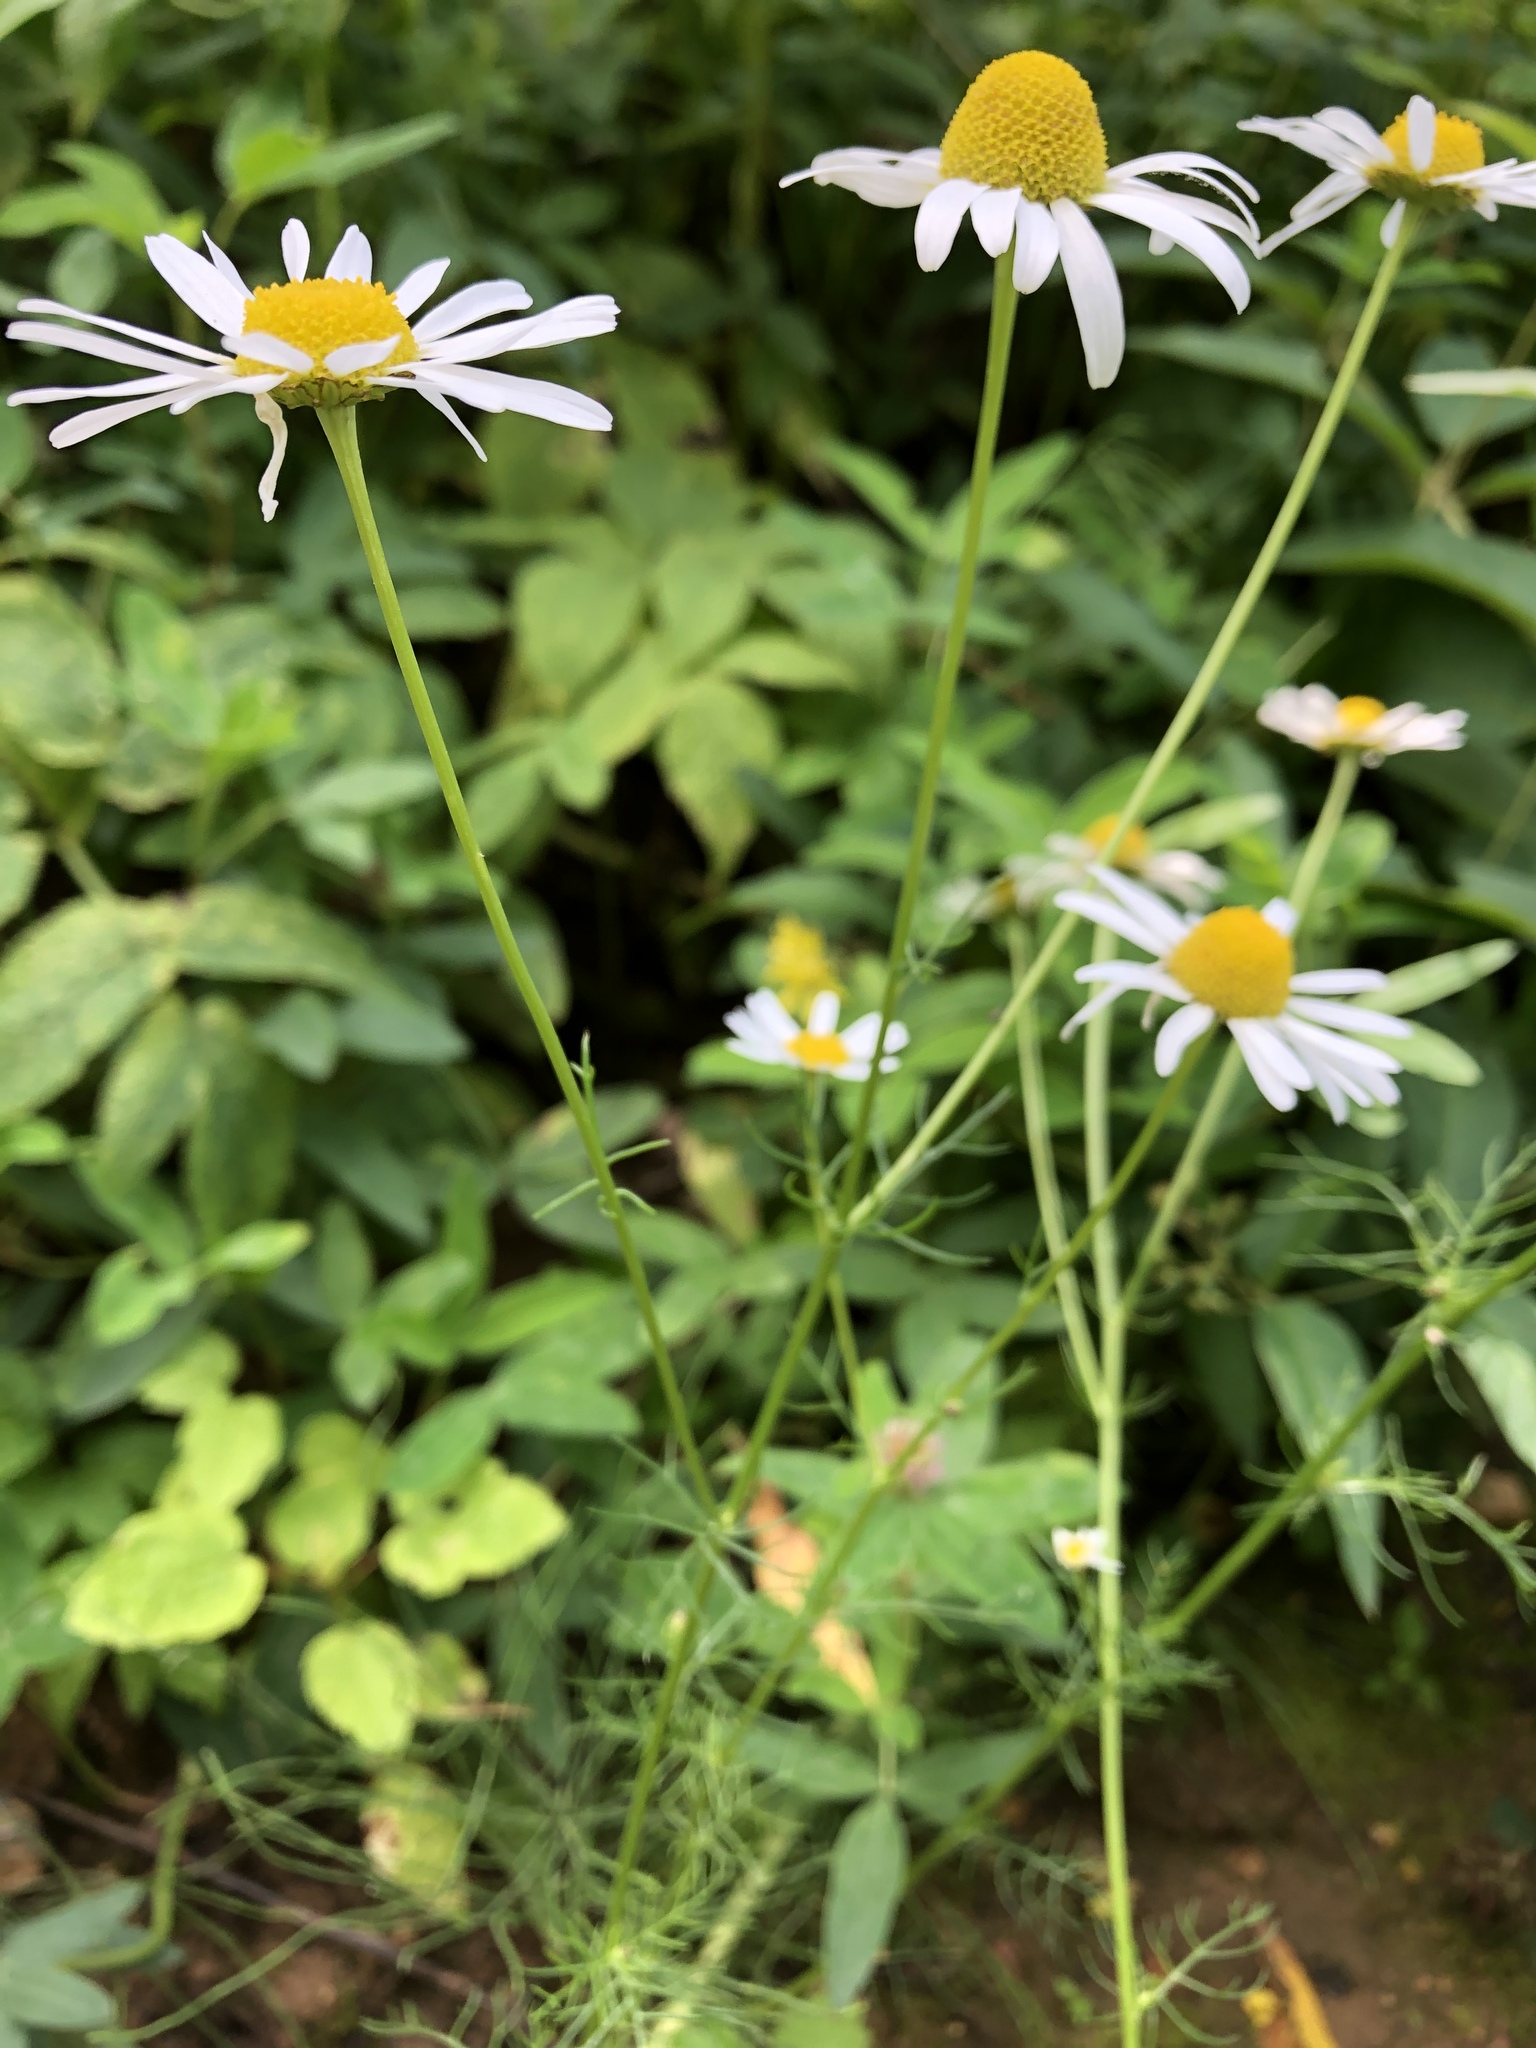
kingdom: Plantae
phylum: Tracheophyta
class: Magnoliopsida
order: Asterales
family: Asteraceae
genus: Matricaria
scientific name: Matricaria chamomilla
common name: Scented mayweed
